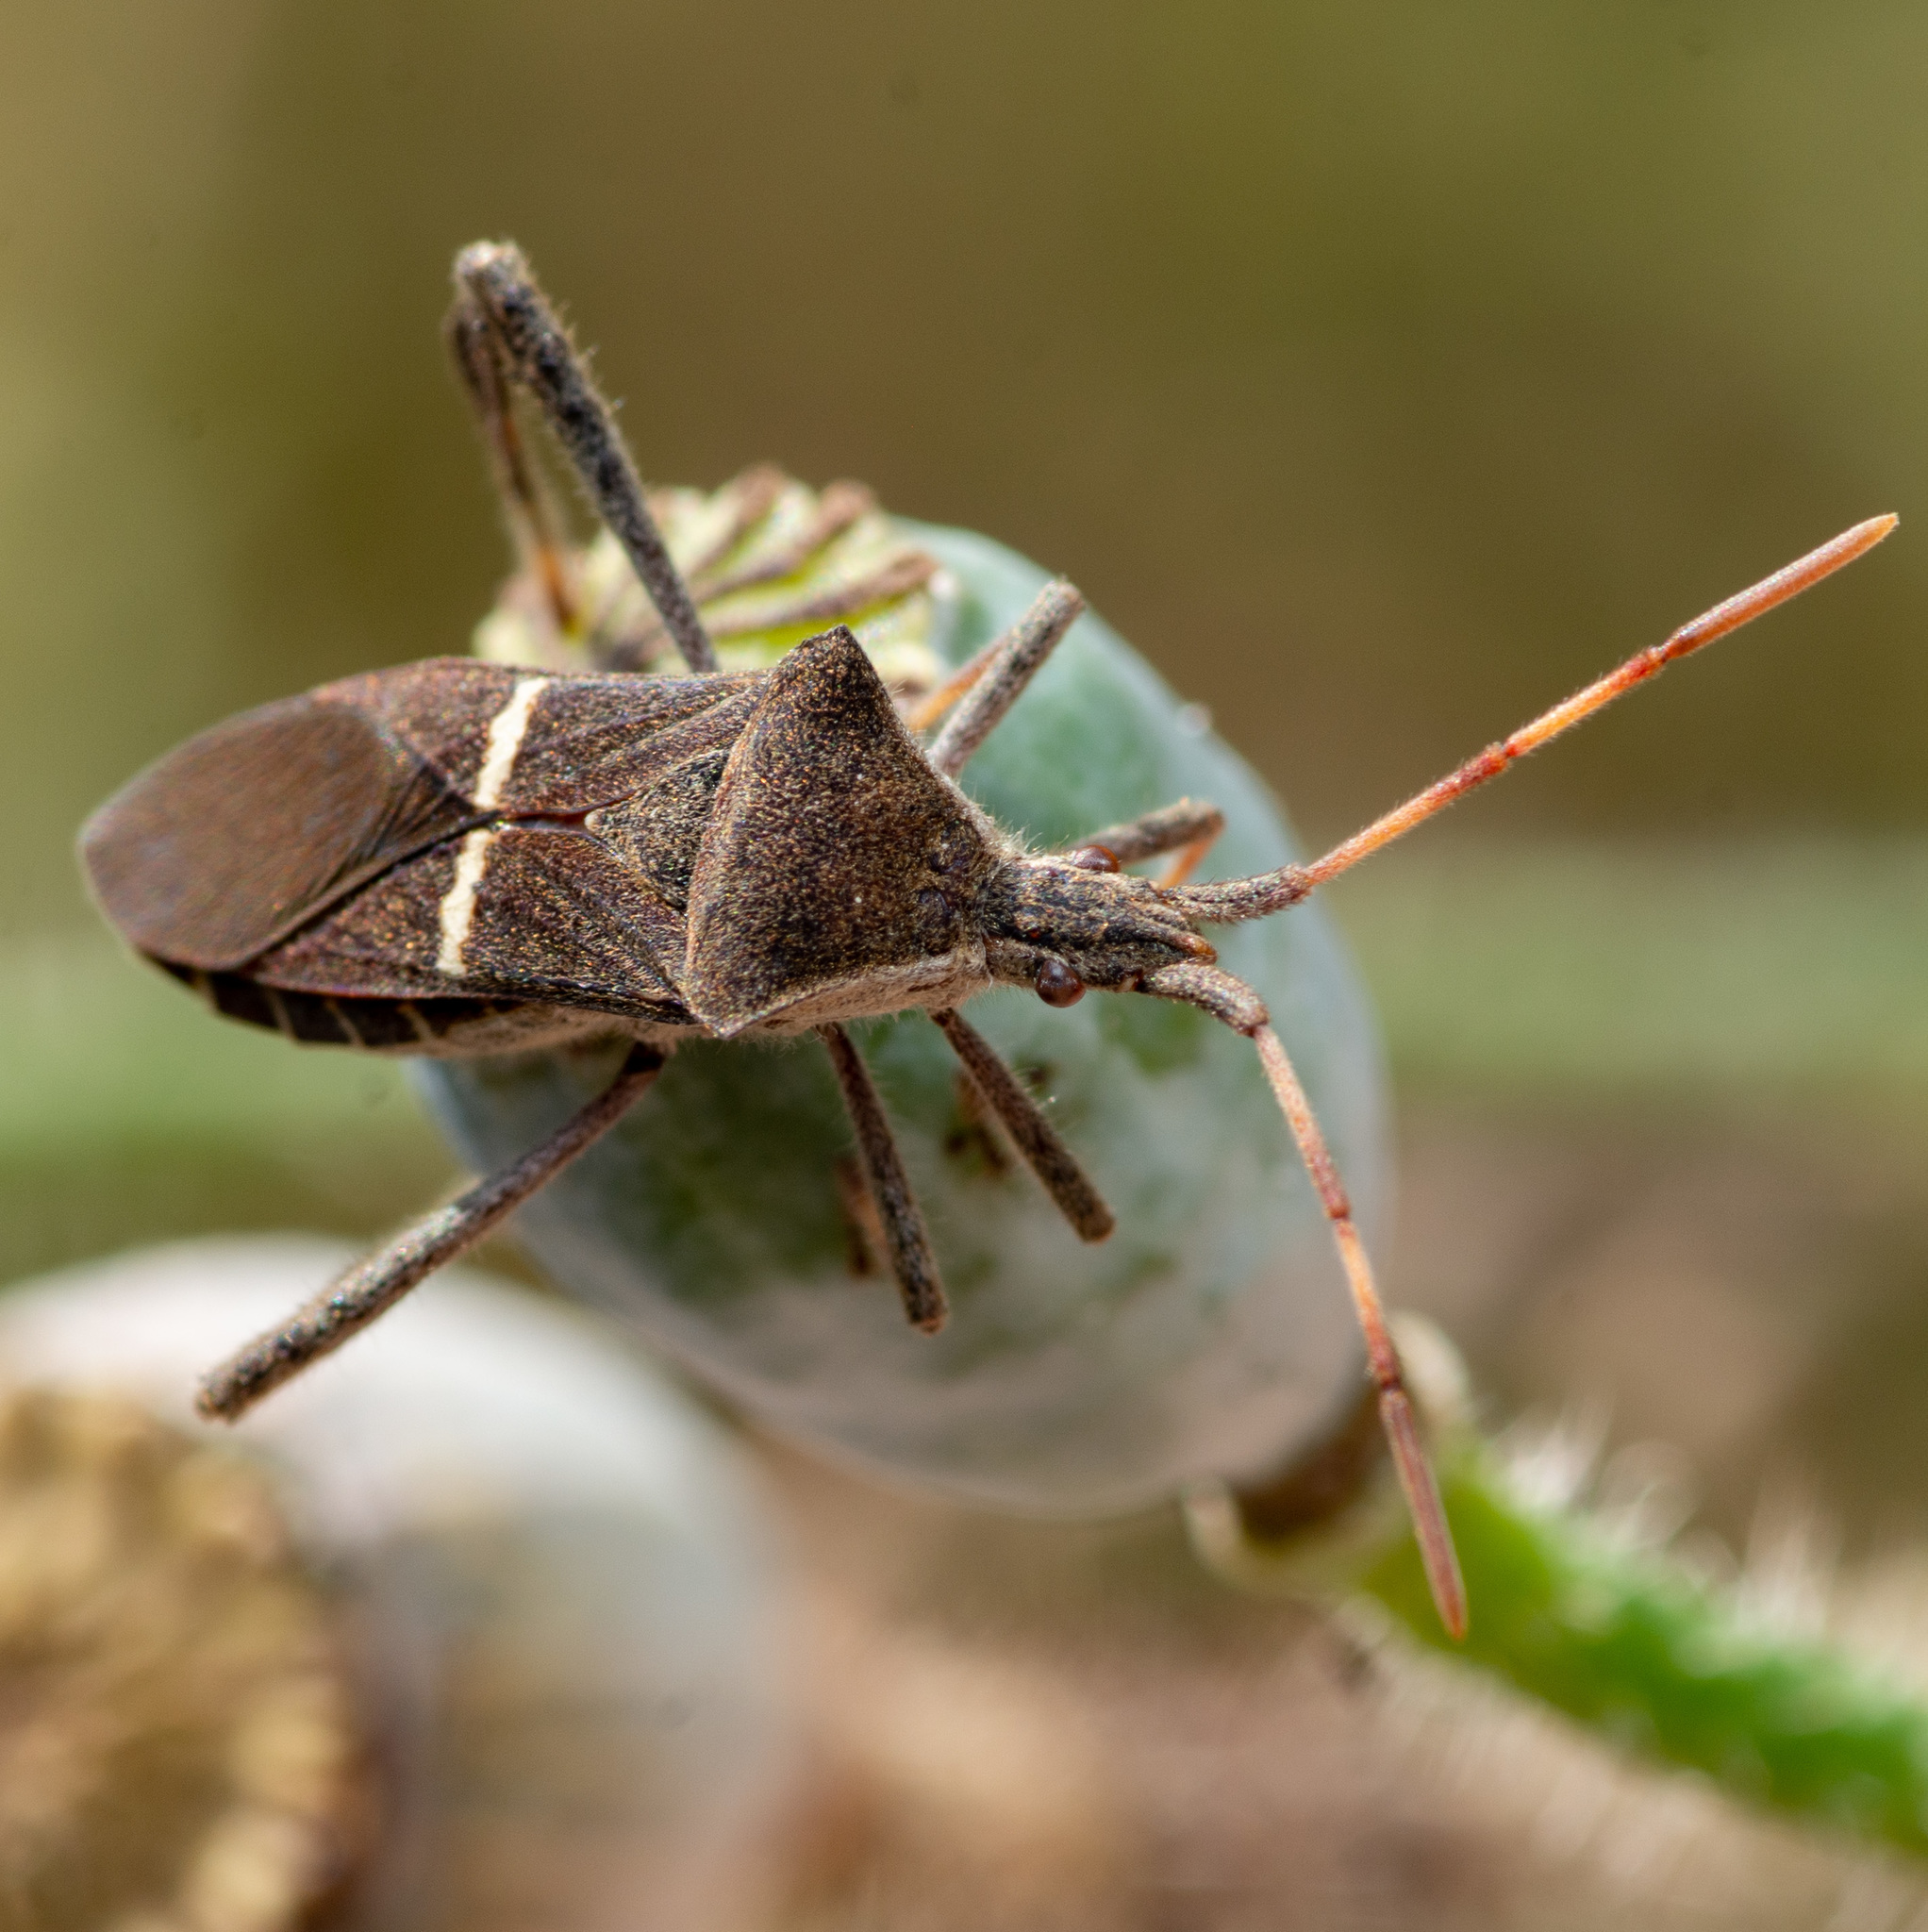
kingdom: Animalia
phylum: Arthropoda
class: Insecta
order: Hemiptera
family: Coreidae
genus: Leptoglossus
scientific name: Leptoglossus phyllopus
